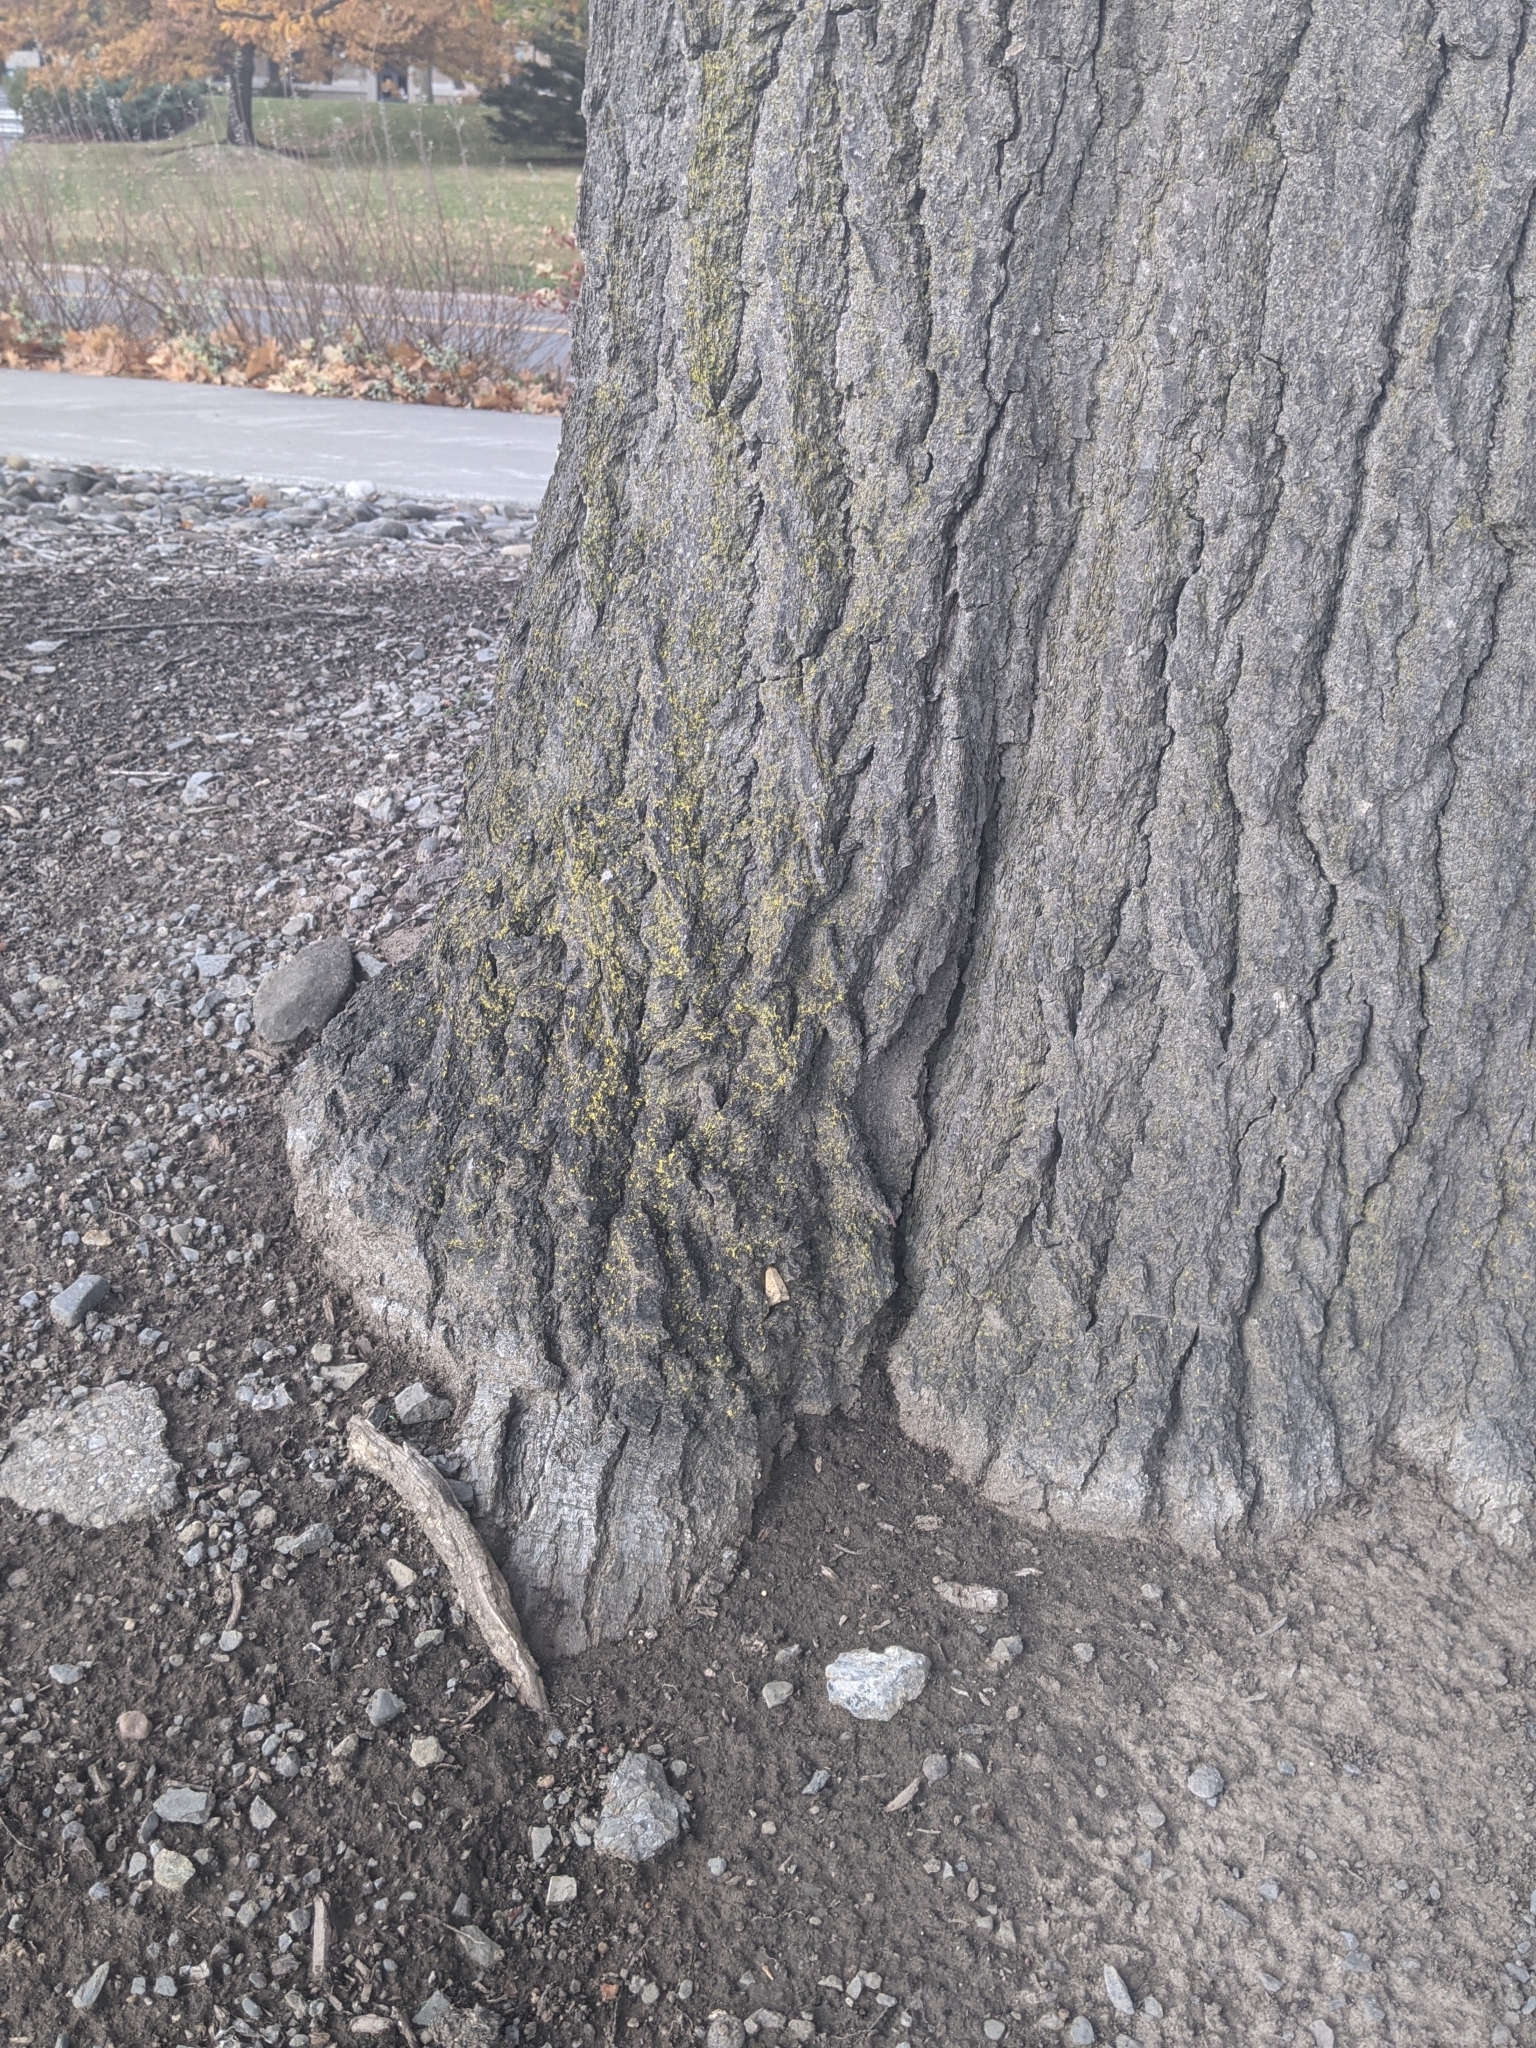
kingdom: Animalia
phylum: Arthropoda
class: Insecta
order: Lepidoptera
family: Noctuidae
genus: Helicoverpa
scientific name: Helicoverpa zea
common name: Bollworm
